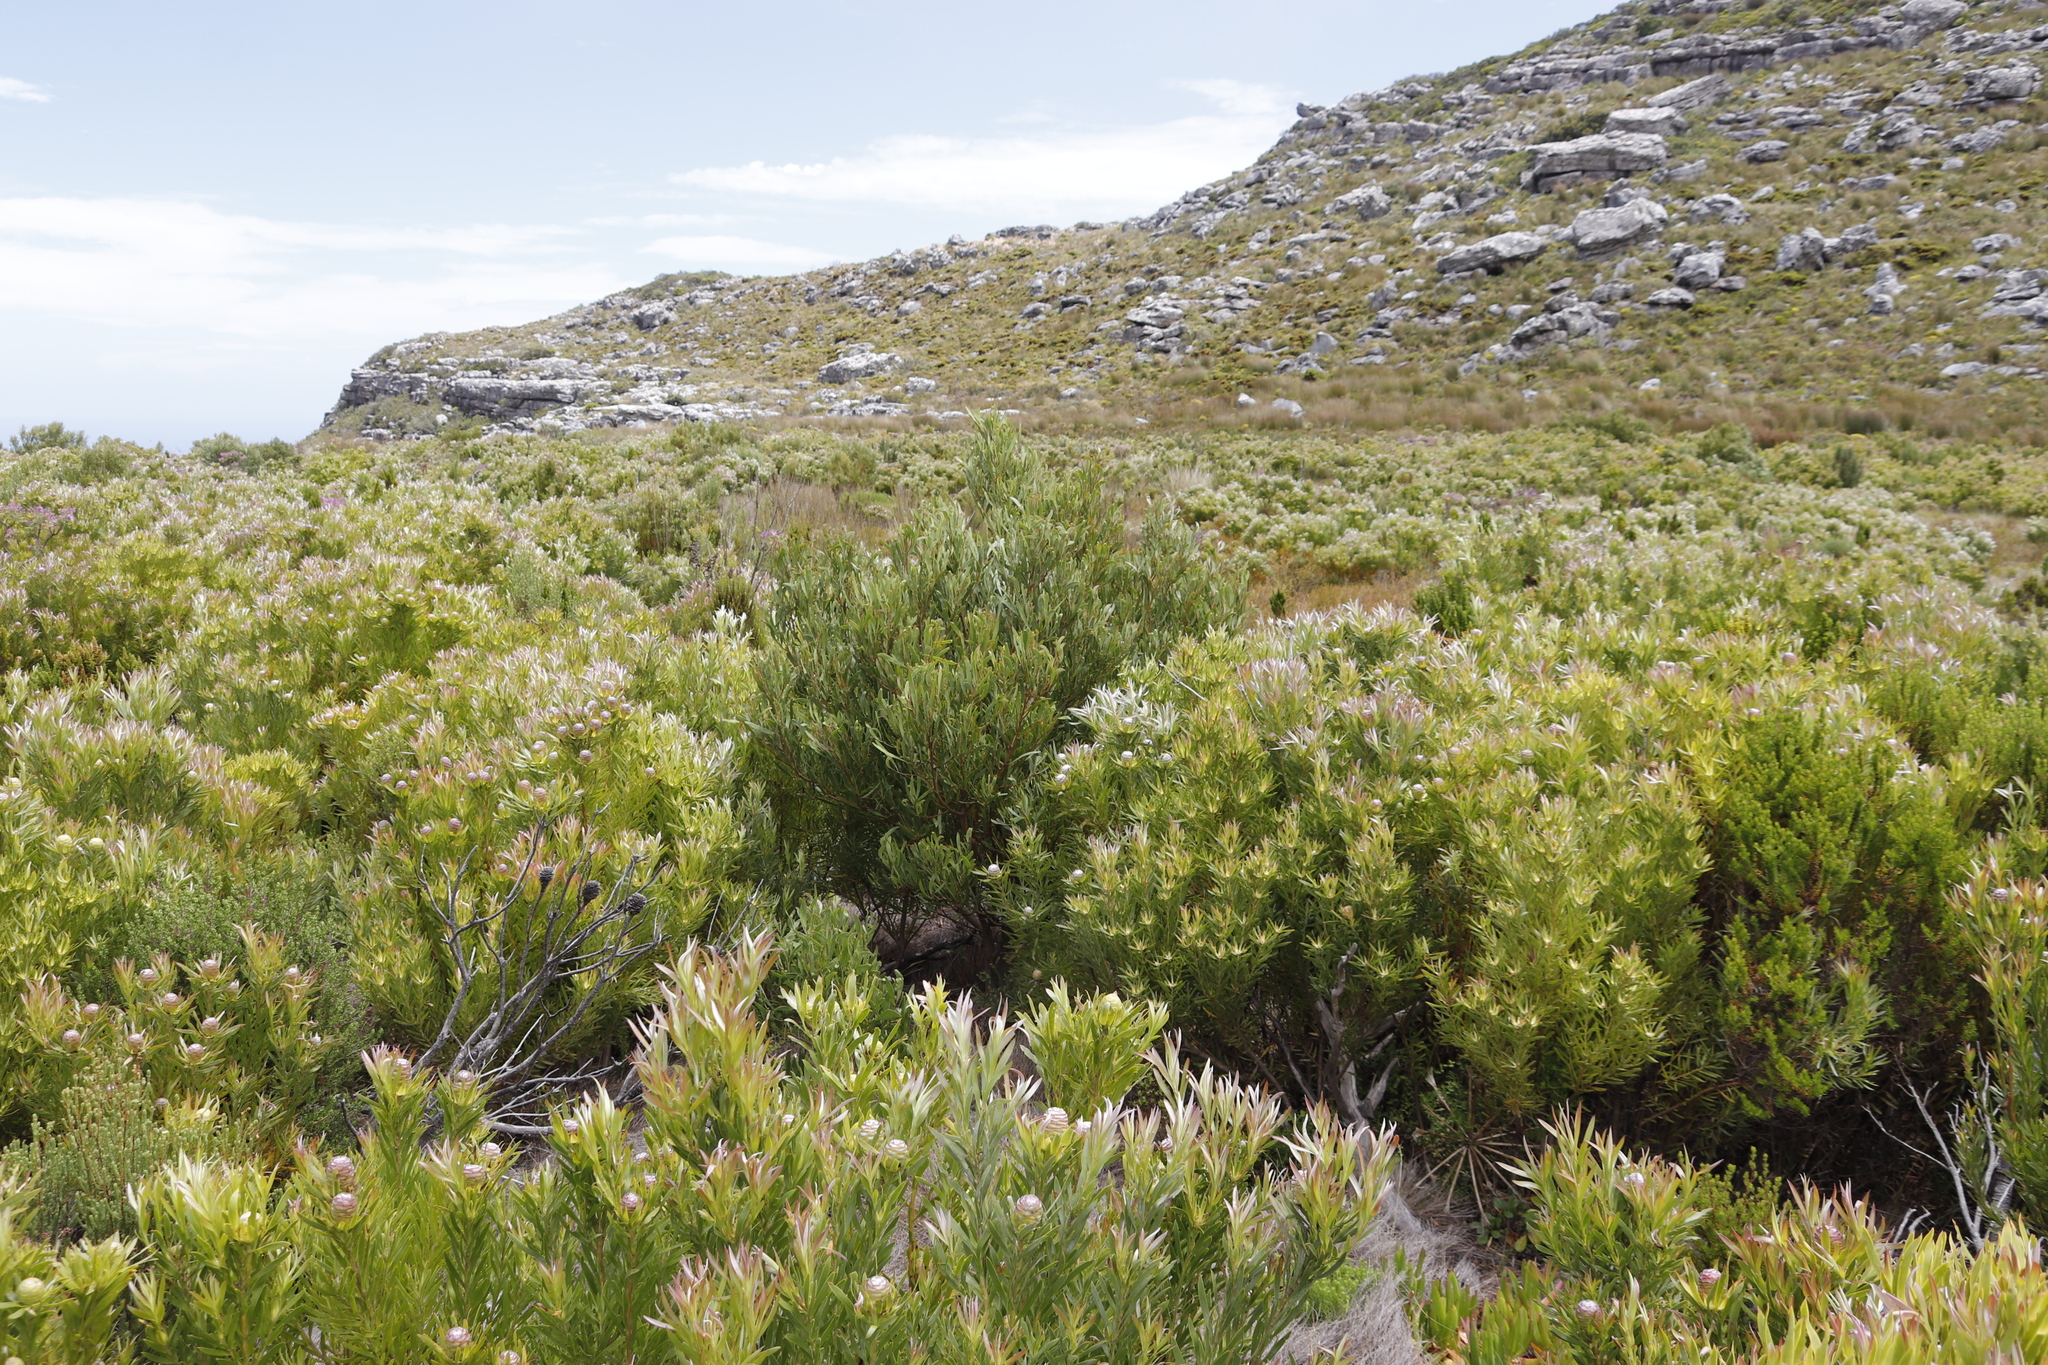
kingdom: Plantae
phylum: Tracheophyta
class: Magnoliopsida
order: Proteales
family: Proteaceae
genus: Leucadendron
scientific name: Leucadendron xanthoconus
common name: Sickle-leaf conebush
